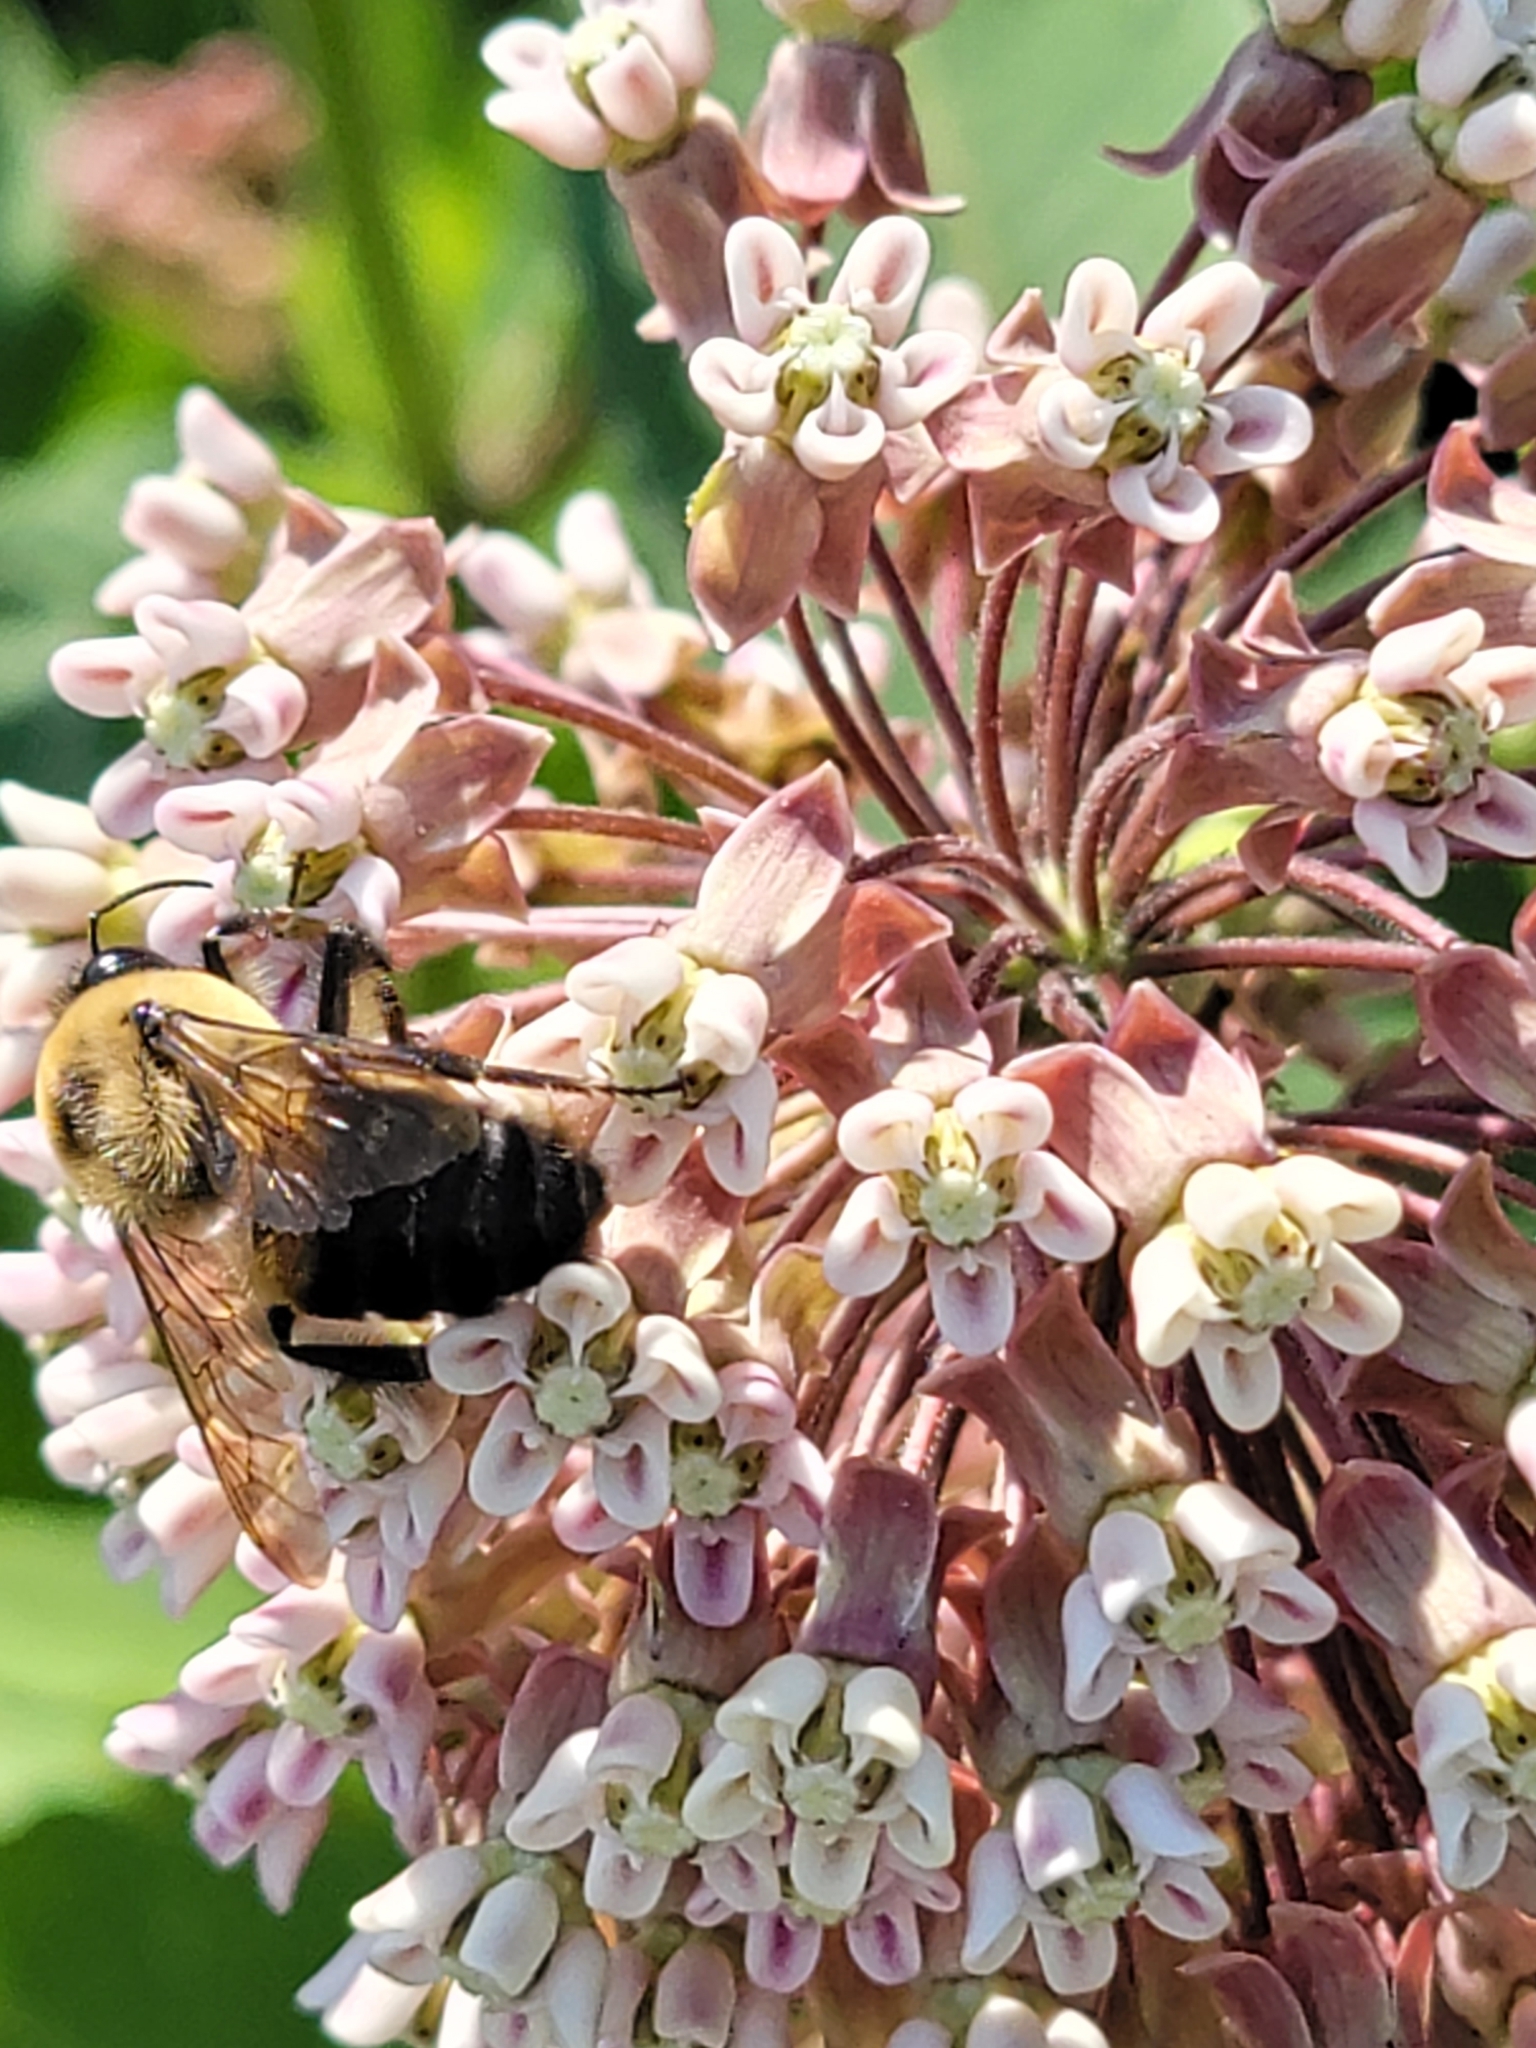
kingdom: Animalia
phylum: Arthropoda
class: Insecta
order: Hymenoptera
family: Apidae
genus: Bombus
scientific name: Bombus griseocollis
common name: Brown-belted bumble bee
